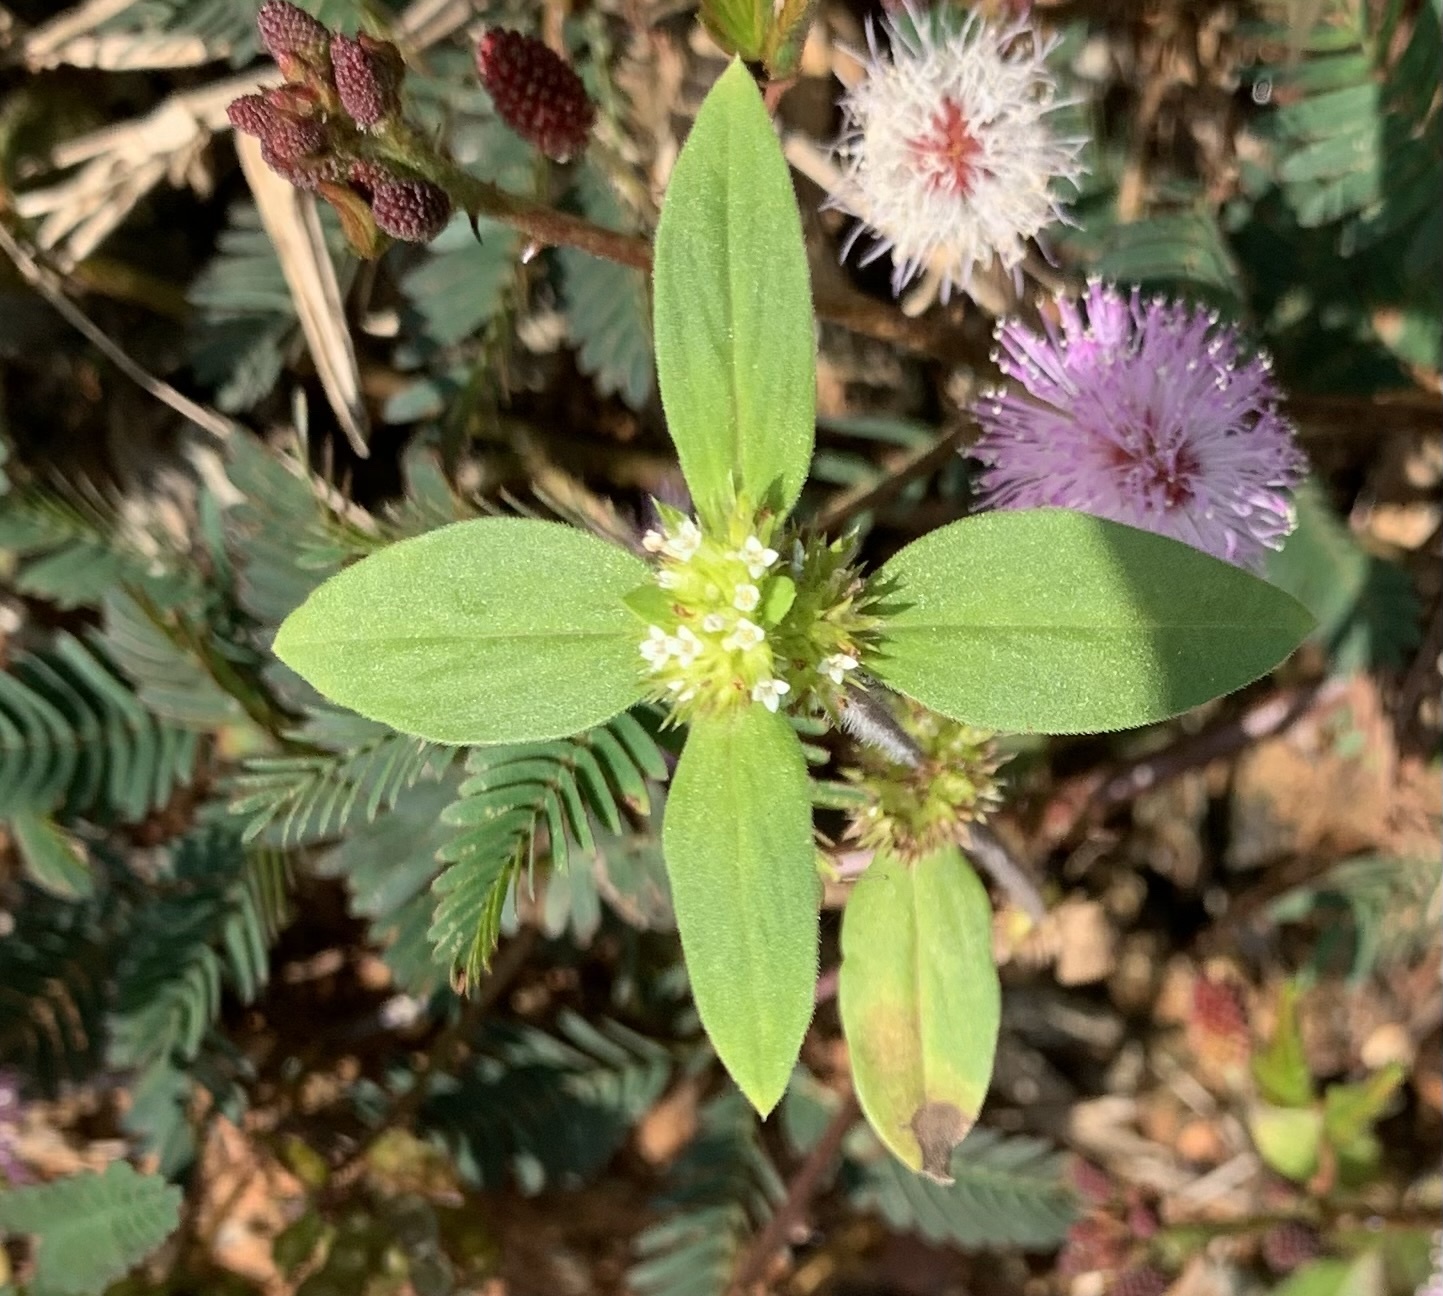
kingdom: Plantae
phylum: Tracheophyta
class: Magnoliopsida
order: Gentianales
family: Rubiaceae
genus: Mitracarpus
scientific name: Mitracarpus hirtus
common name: Tropical girdlepod
